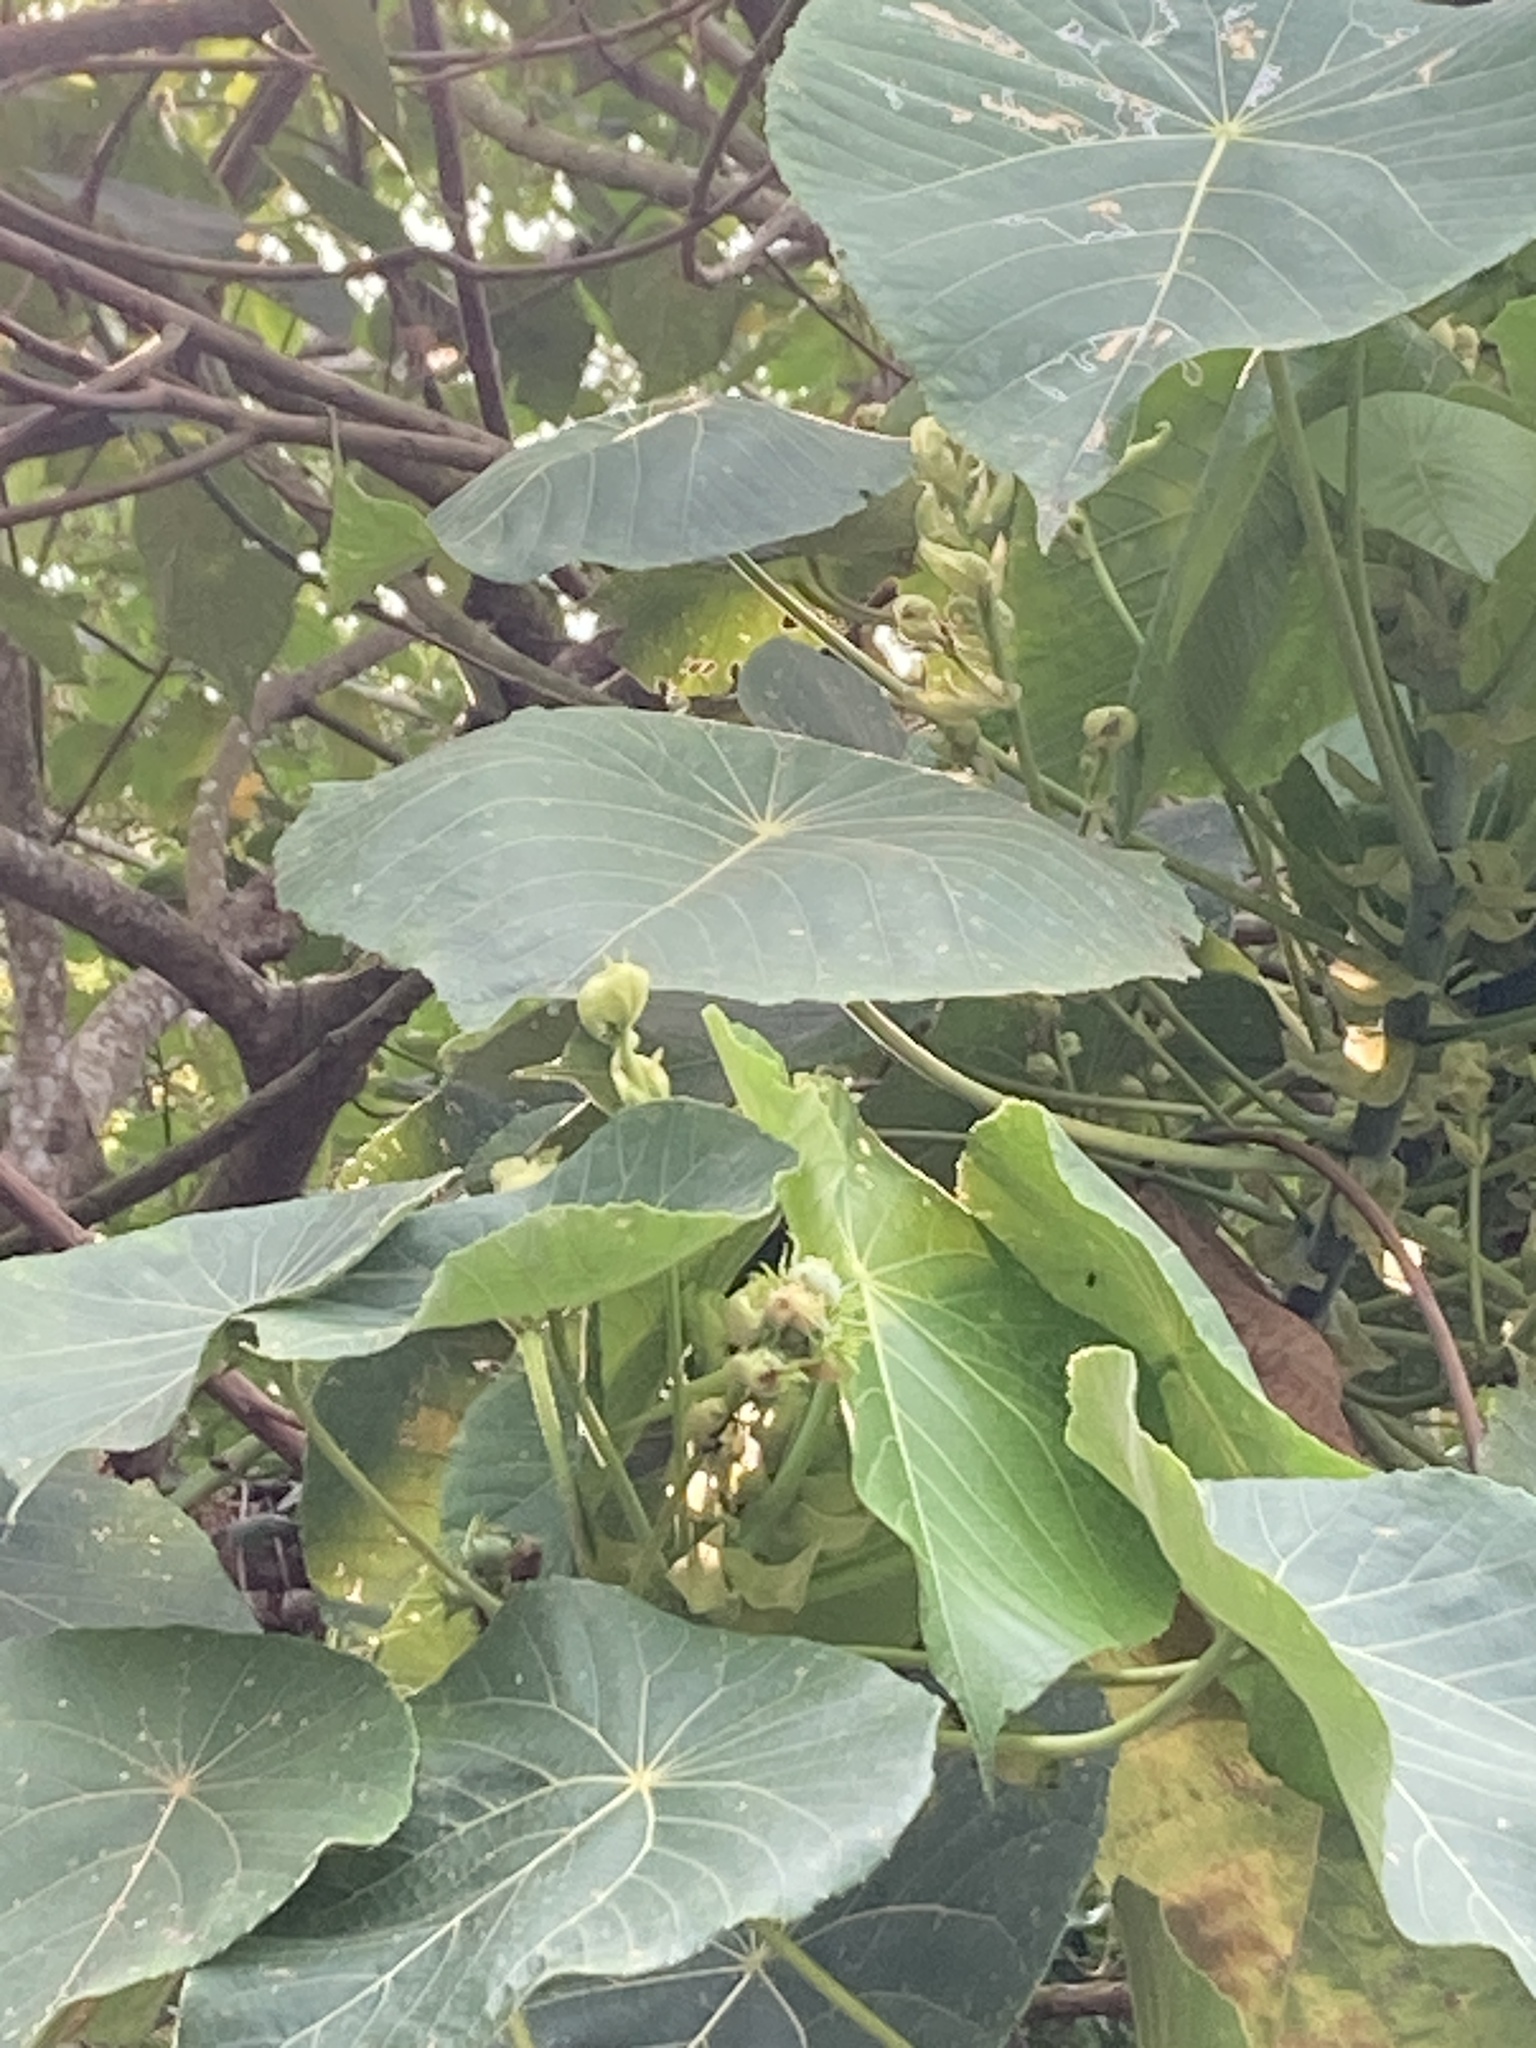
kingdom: Plantae
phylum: Tracheophyta
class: Magnoliopsida
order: Malpighiales
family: Euphorbiaceae
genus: Macaranga
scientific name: Macaranga tanarius
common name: Parasol leaf tree
